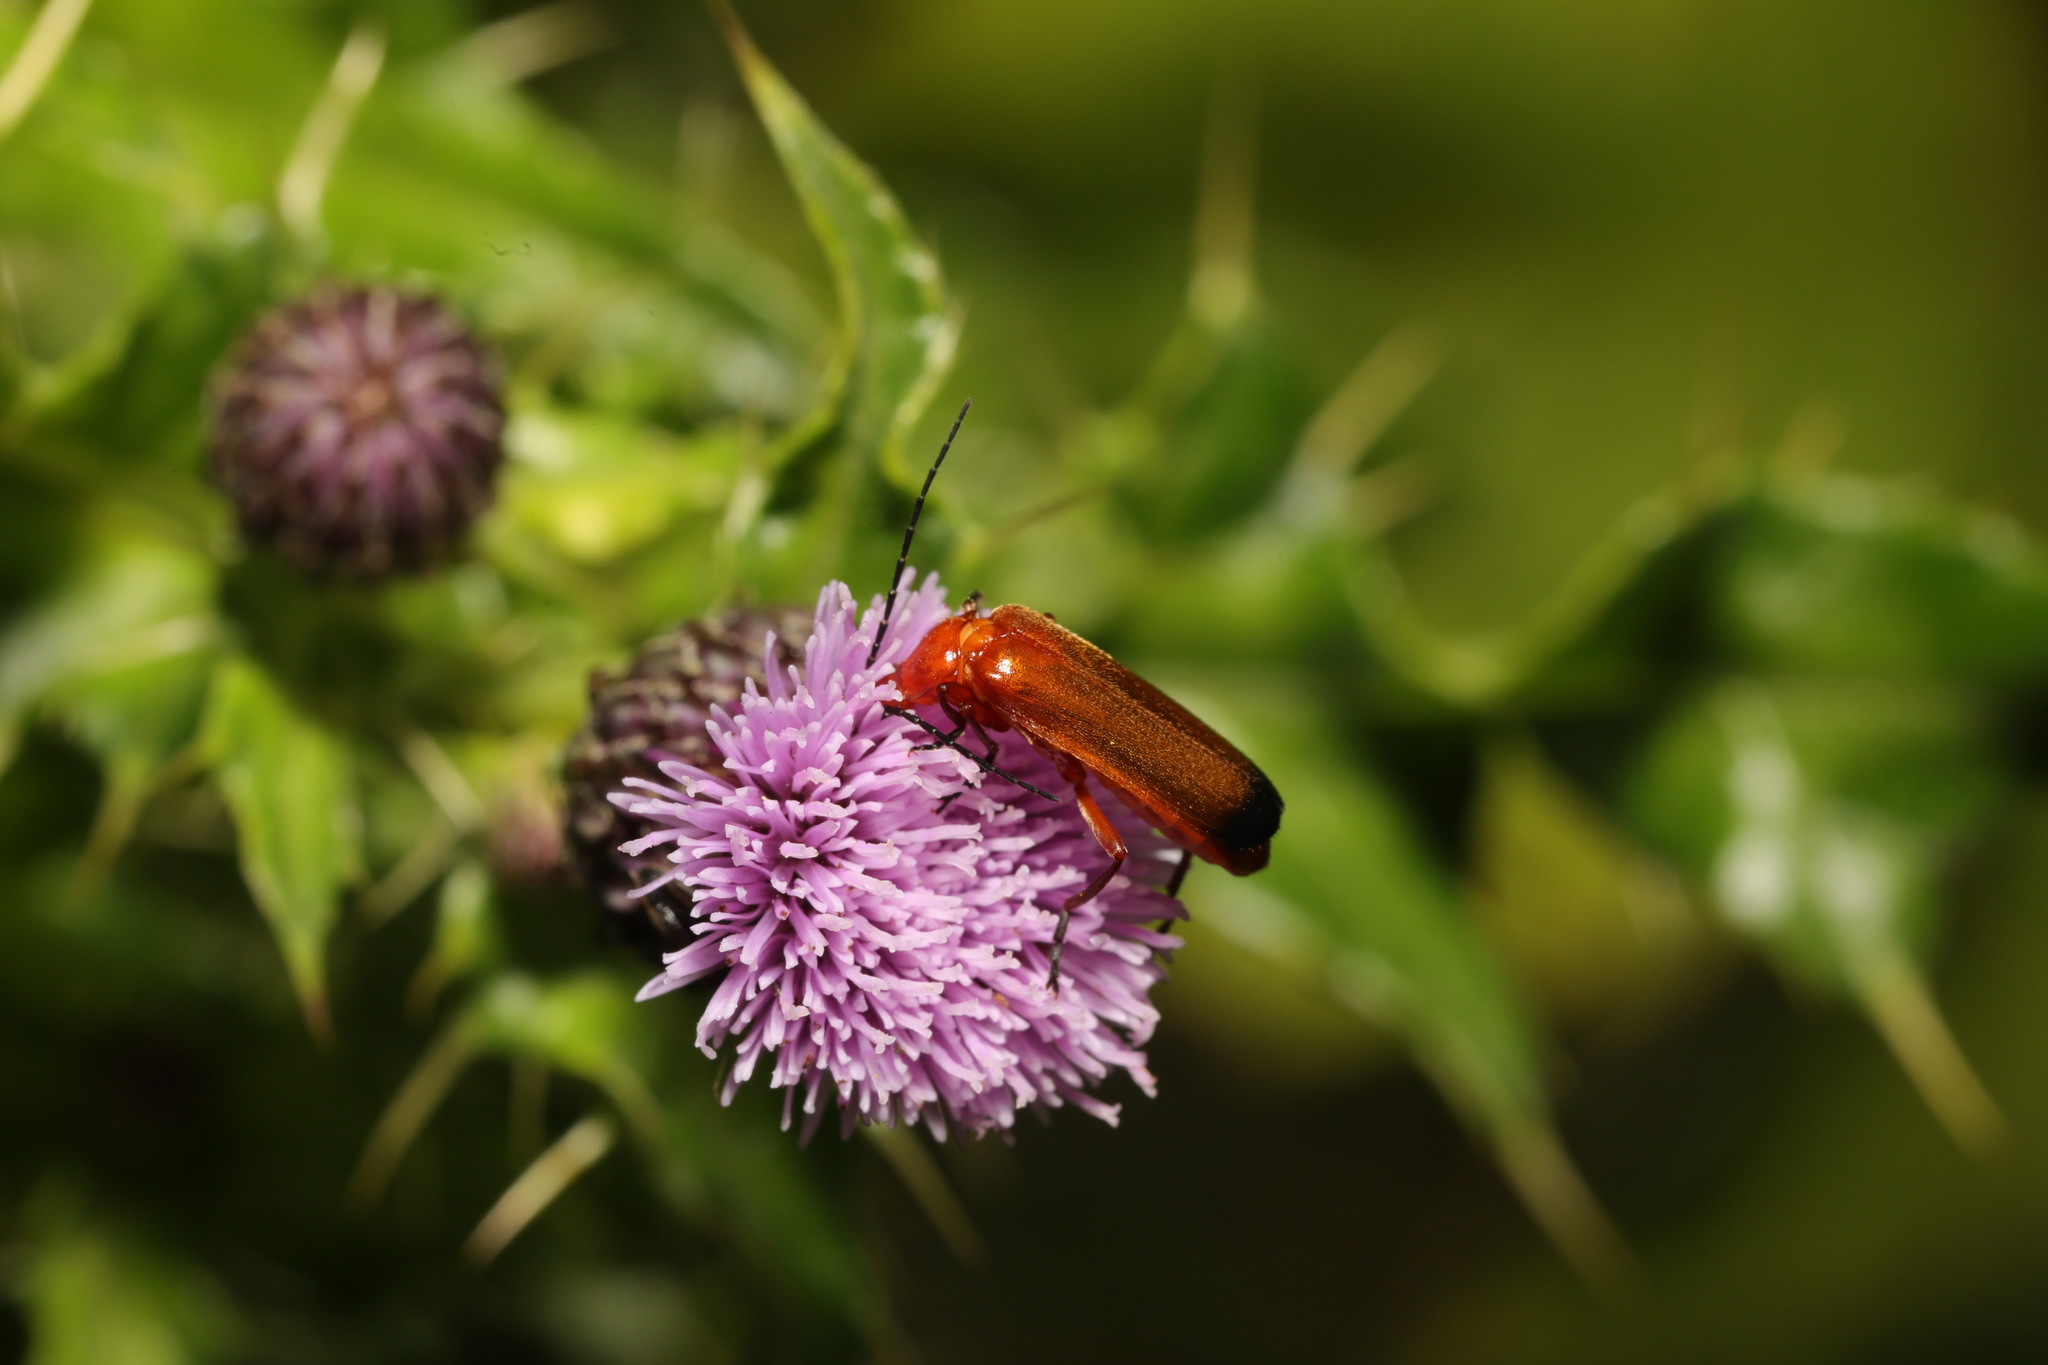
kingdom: Animalia
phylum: Arthropoda
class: Insecta
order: Coleoptera
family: Cantharidae
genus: Rhagonycha
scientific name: Rhagonycha fulva
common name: Common red soldier beetle
